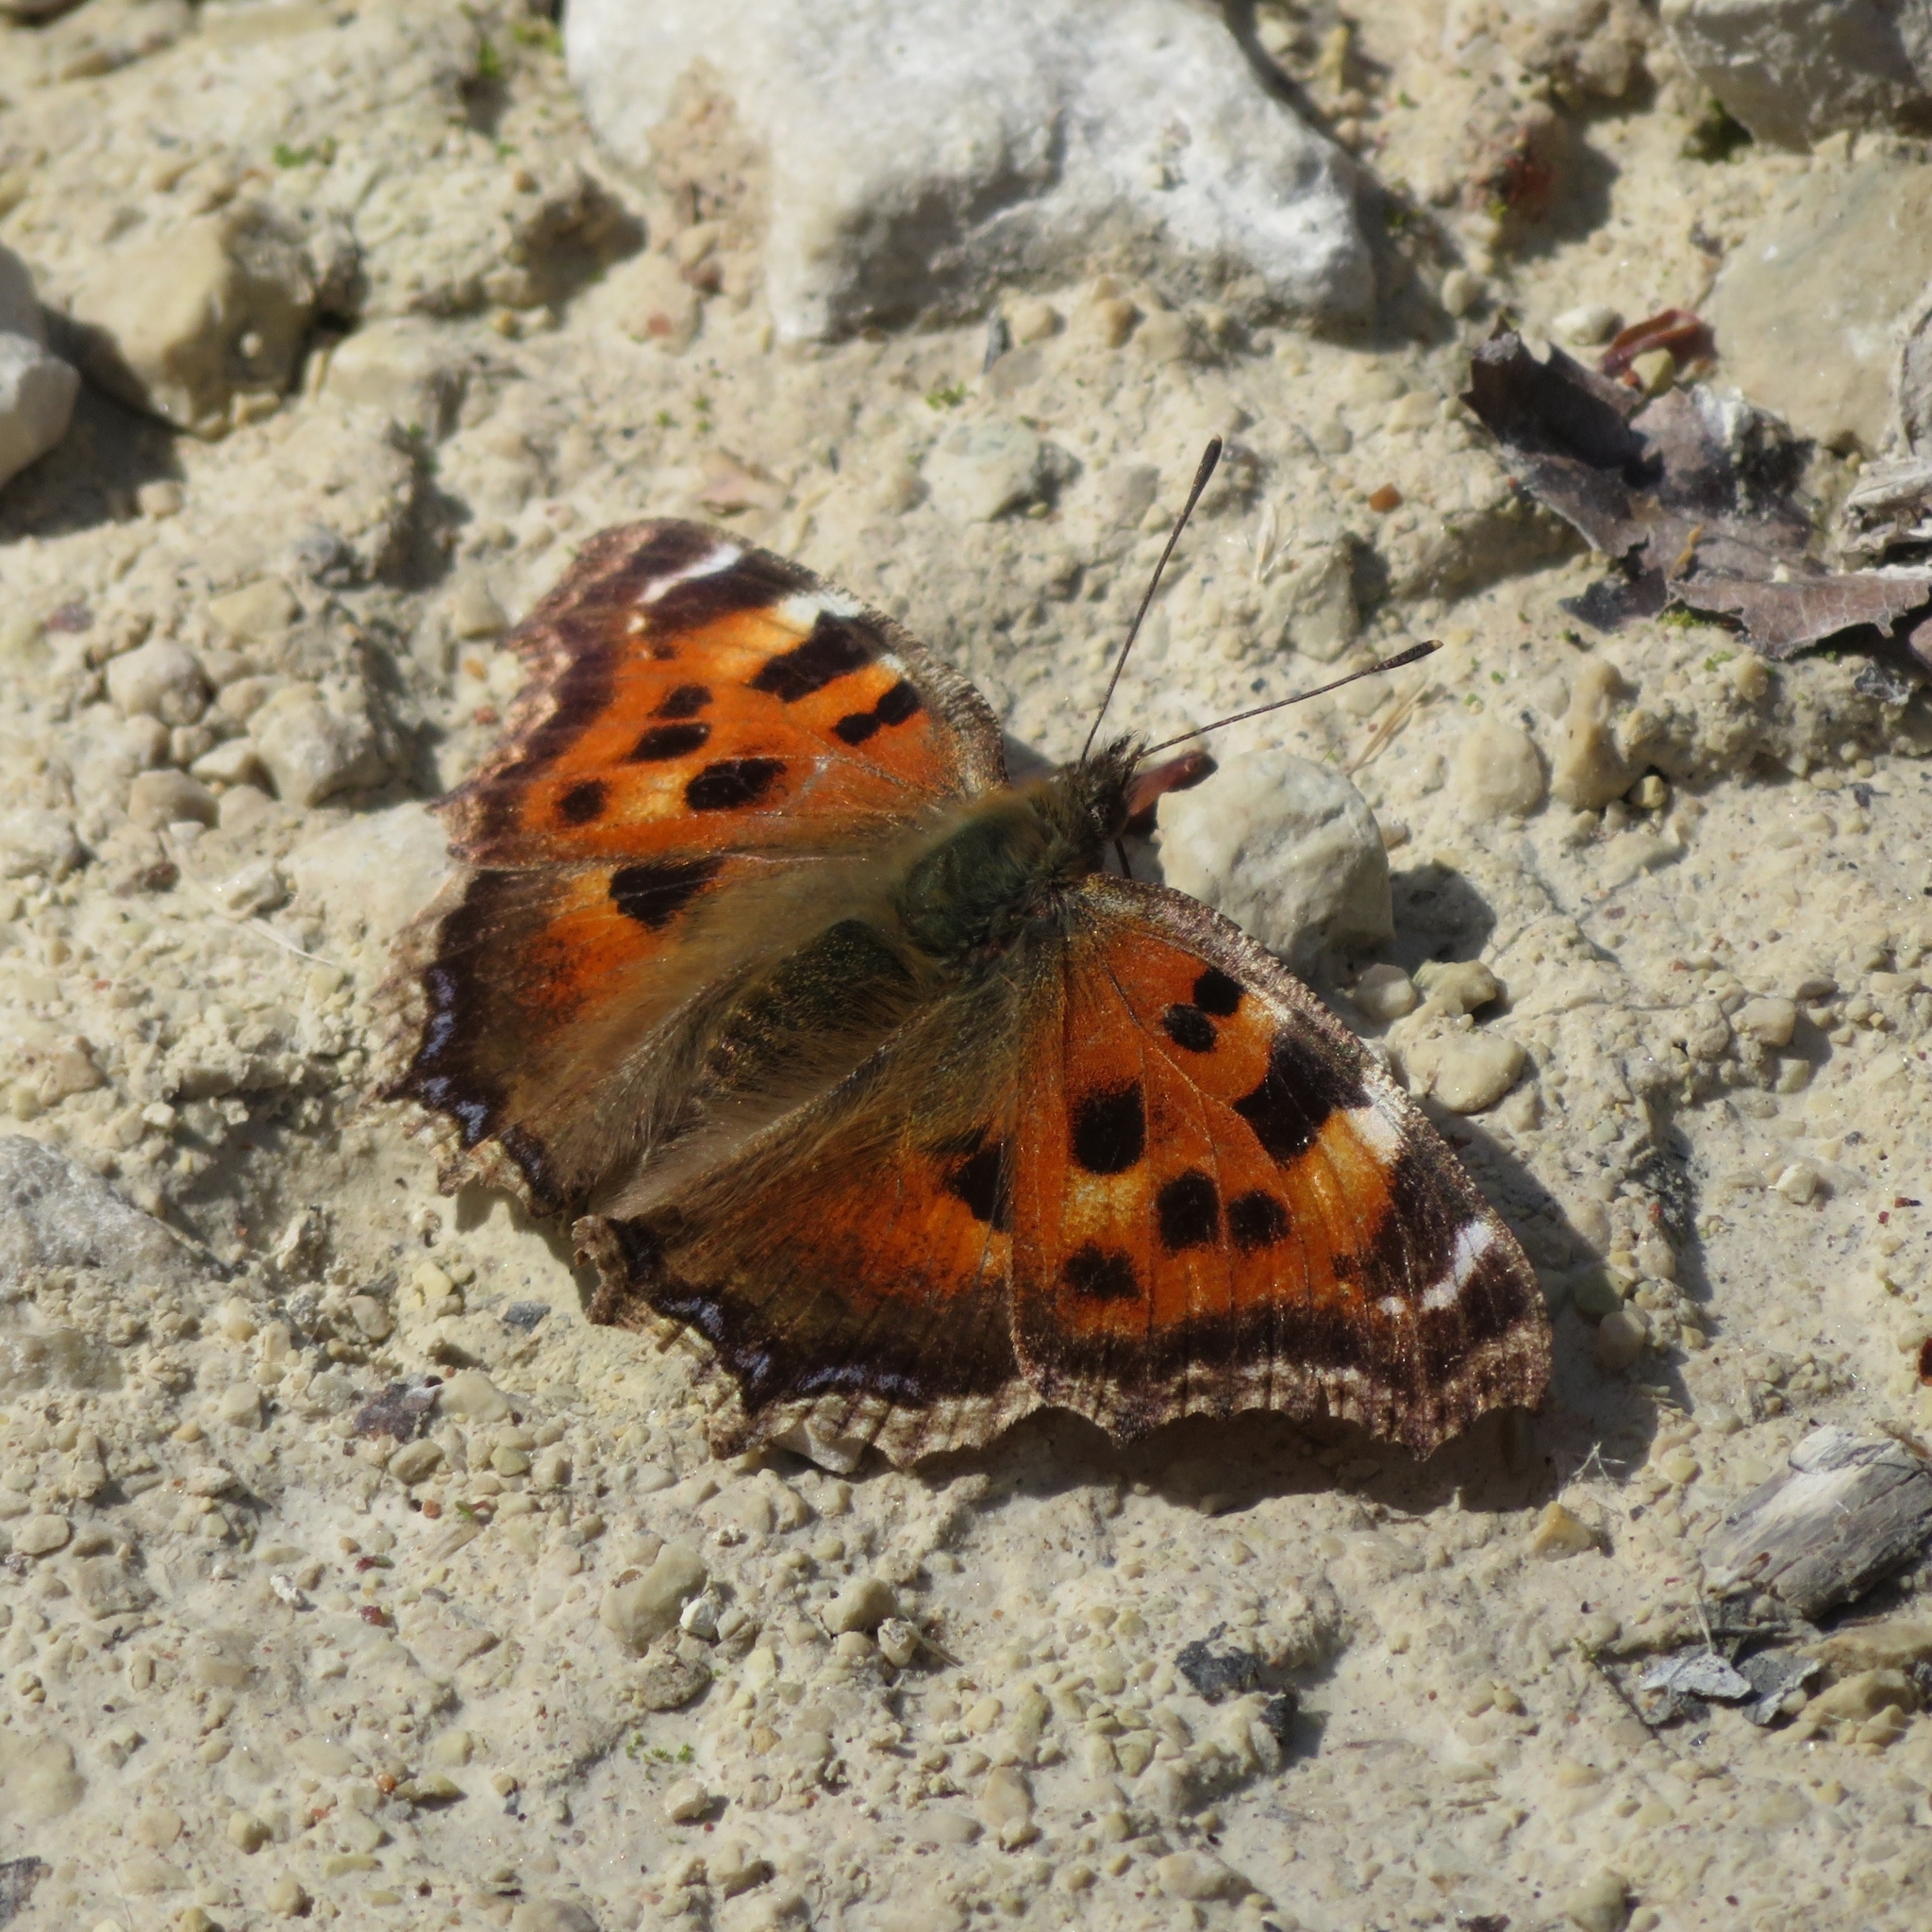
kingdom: Animalia
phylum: Arthropoda
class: Insecta
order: Lepidoptera
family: Nymphalidae
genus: Nymphalis
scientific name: Nymphalis xanthomelas
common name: Scarce tortoiseshell
